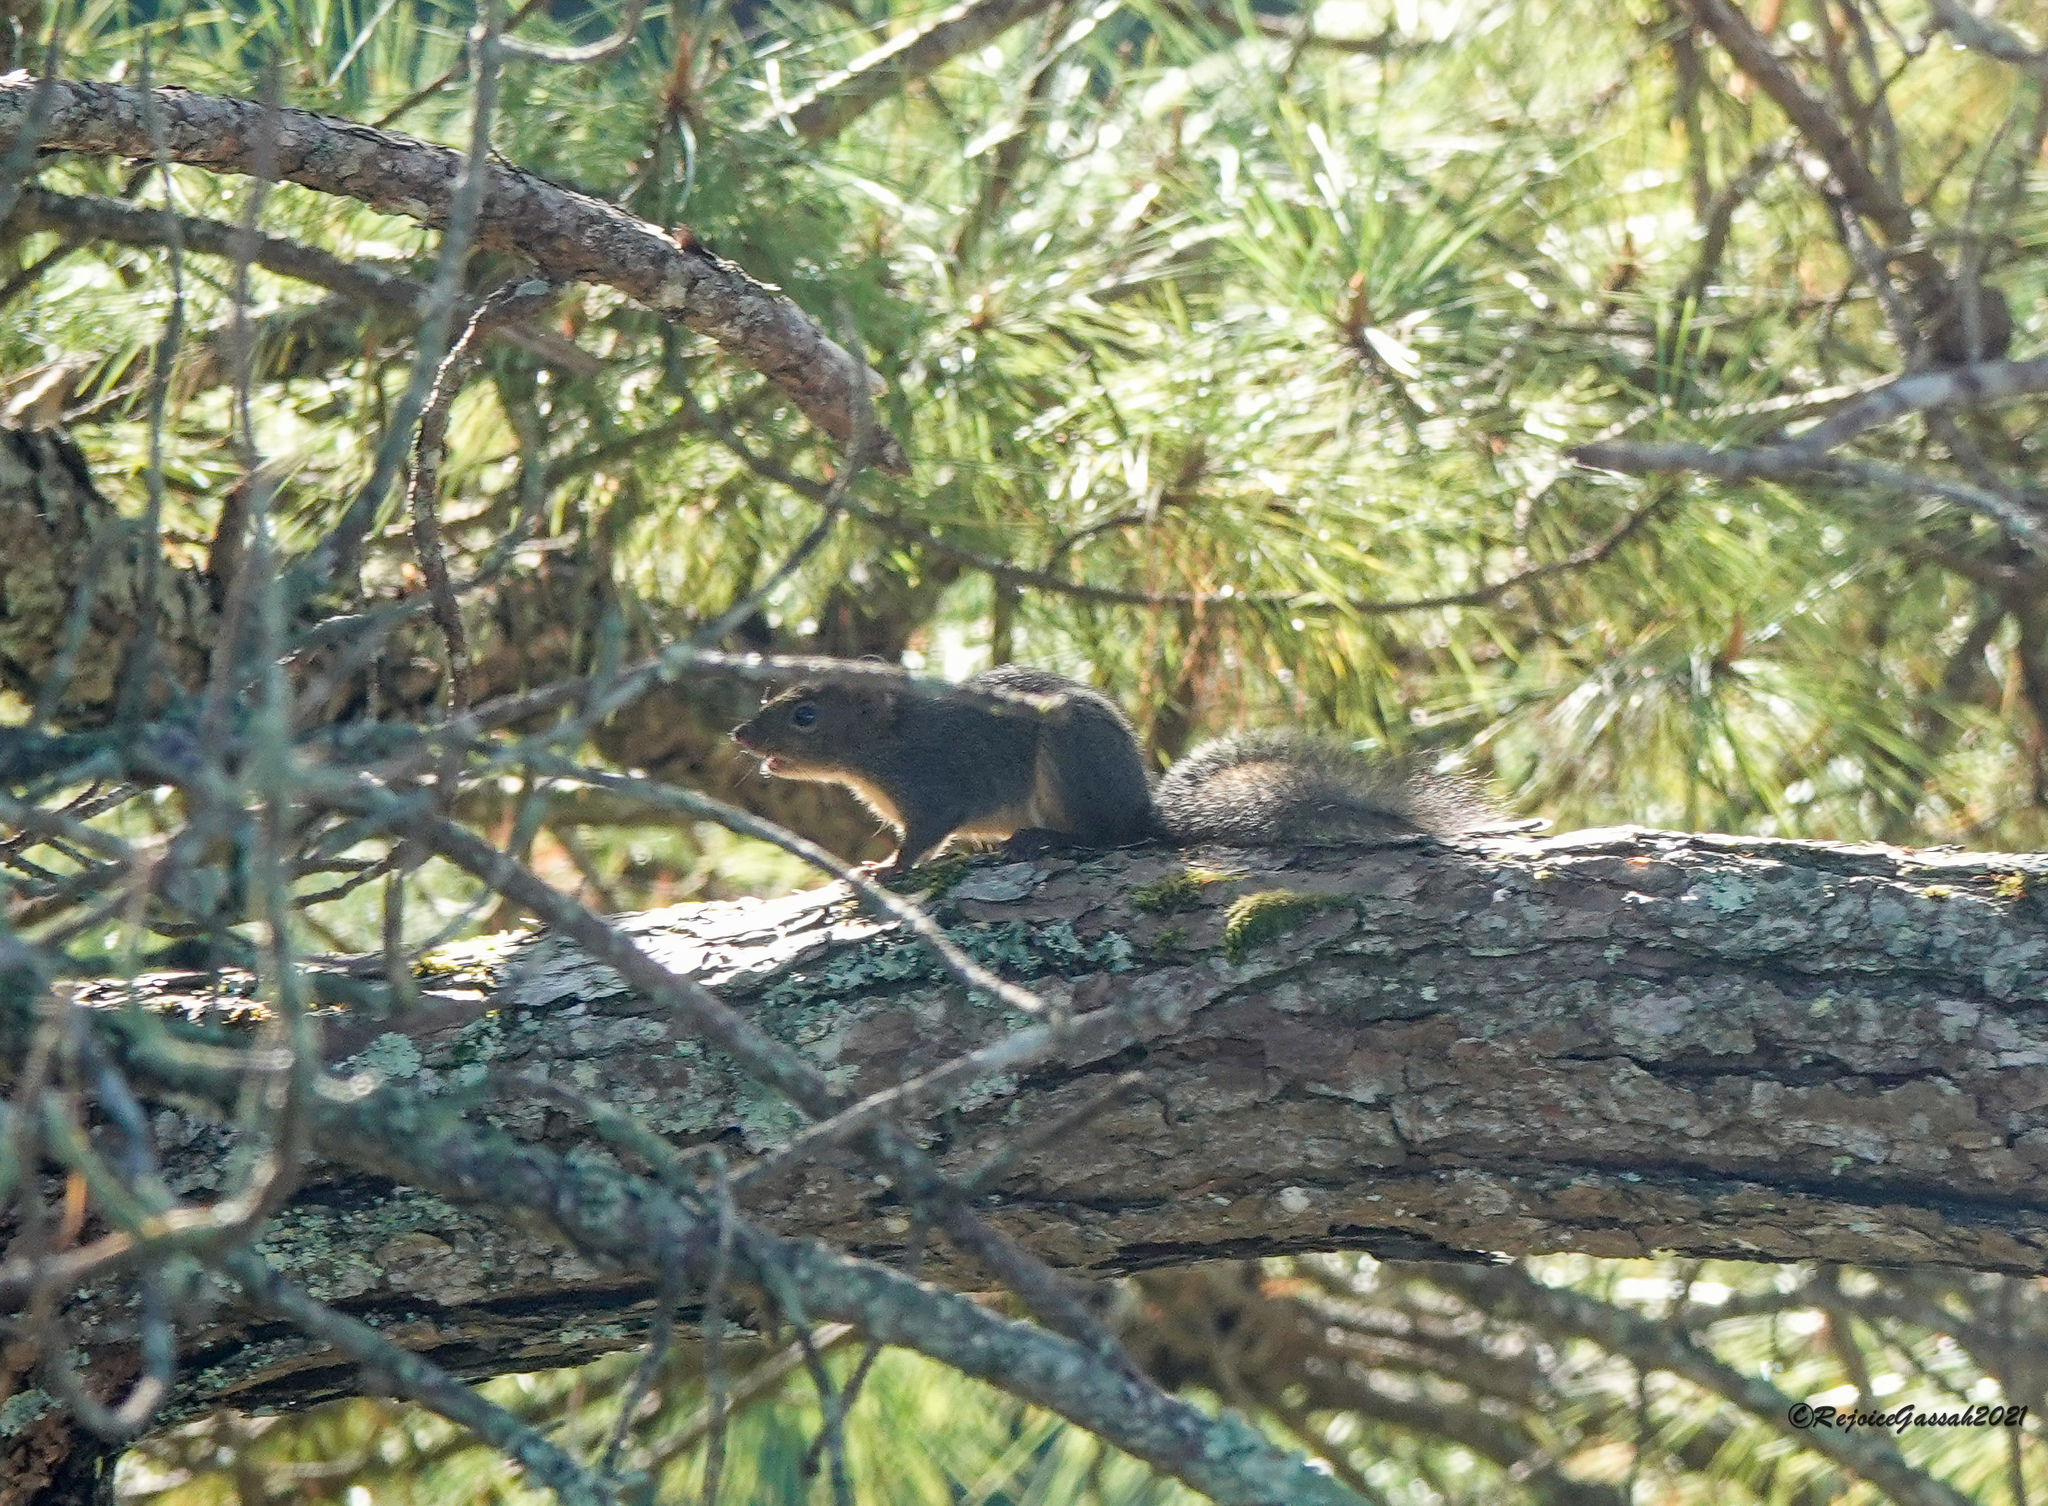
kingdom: Animalia
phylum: Chordata
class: Mammalia
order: Rodentia
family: Sciuridae
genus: Dremomys
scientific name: Dremomys lokriah
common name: Orange-bellied himalayan squirrel
